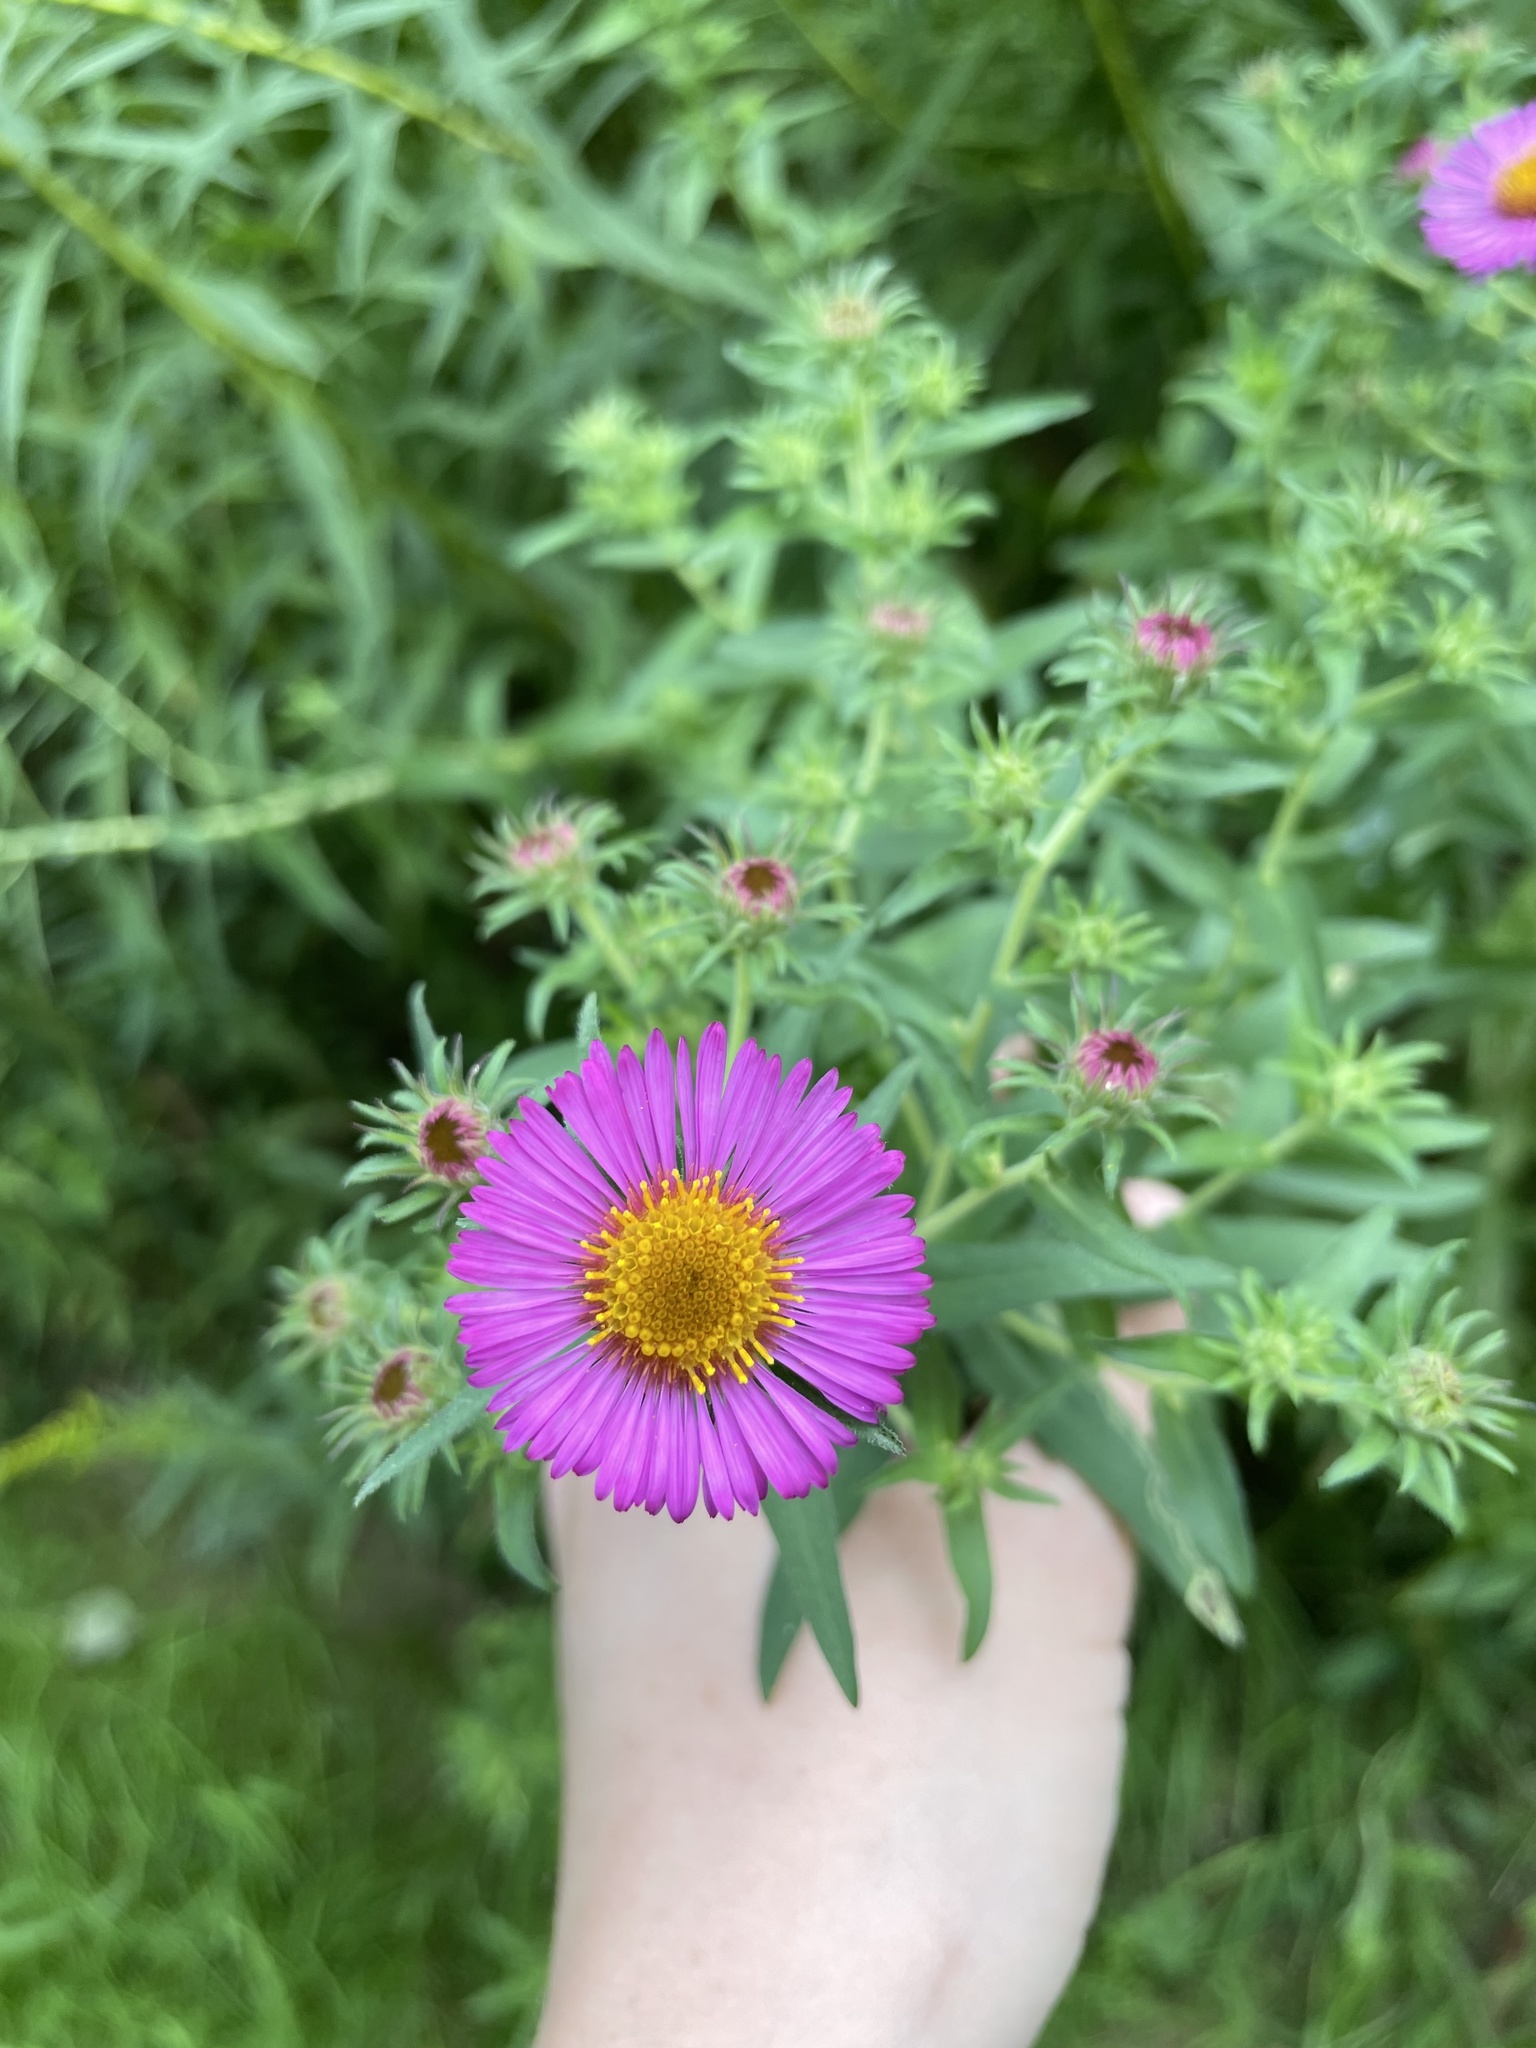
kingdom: Plantae
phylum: Tracheophyta
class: Magnoliopsida
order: Asterales
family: Asteraceae
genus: Symphyotrichum
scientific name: Symphyotrichum novae-angliae
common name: Michaelmas daisy
